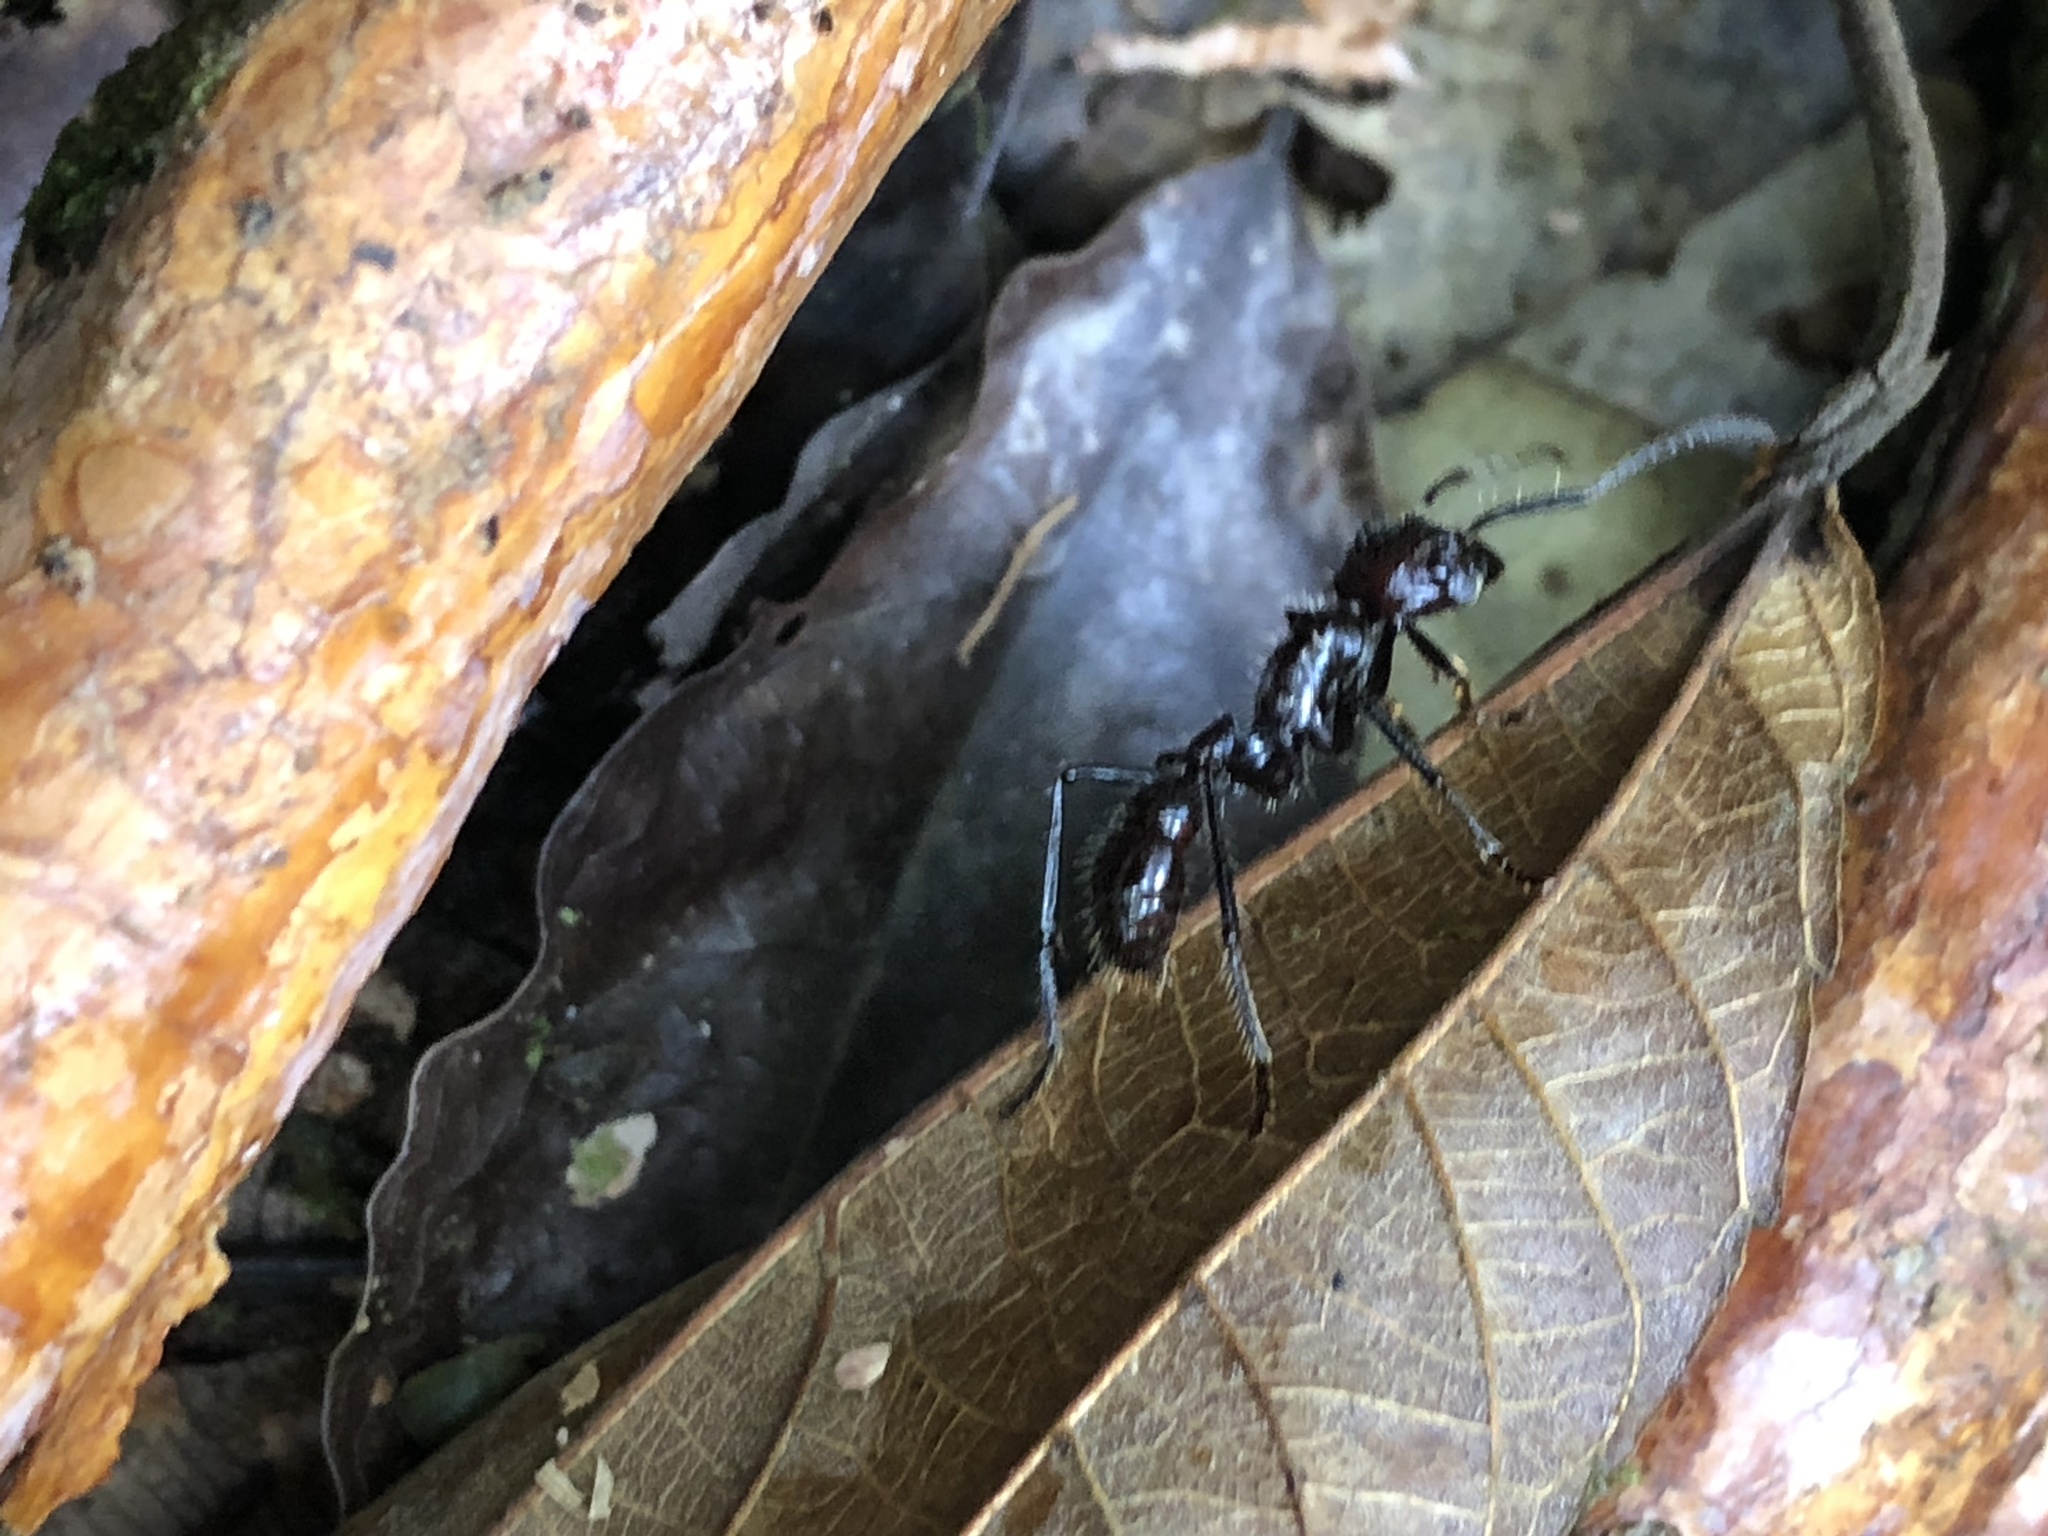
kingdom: Animalia
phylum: Arthropoda
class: Insecta
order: Hymenoptera
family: Formicidae
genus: Paraponera
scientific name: Paraponera clavata
